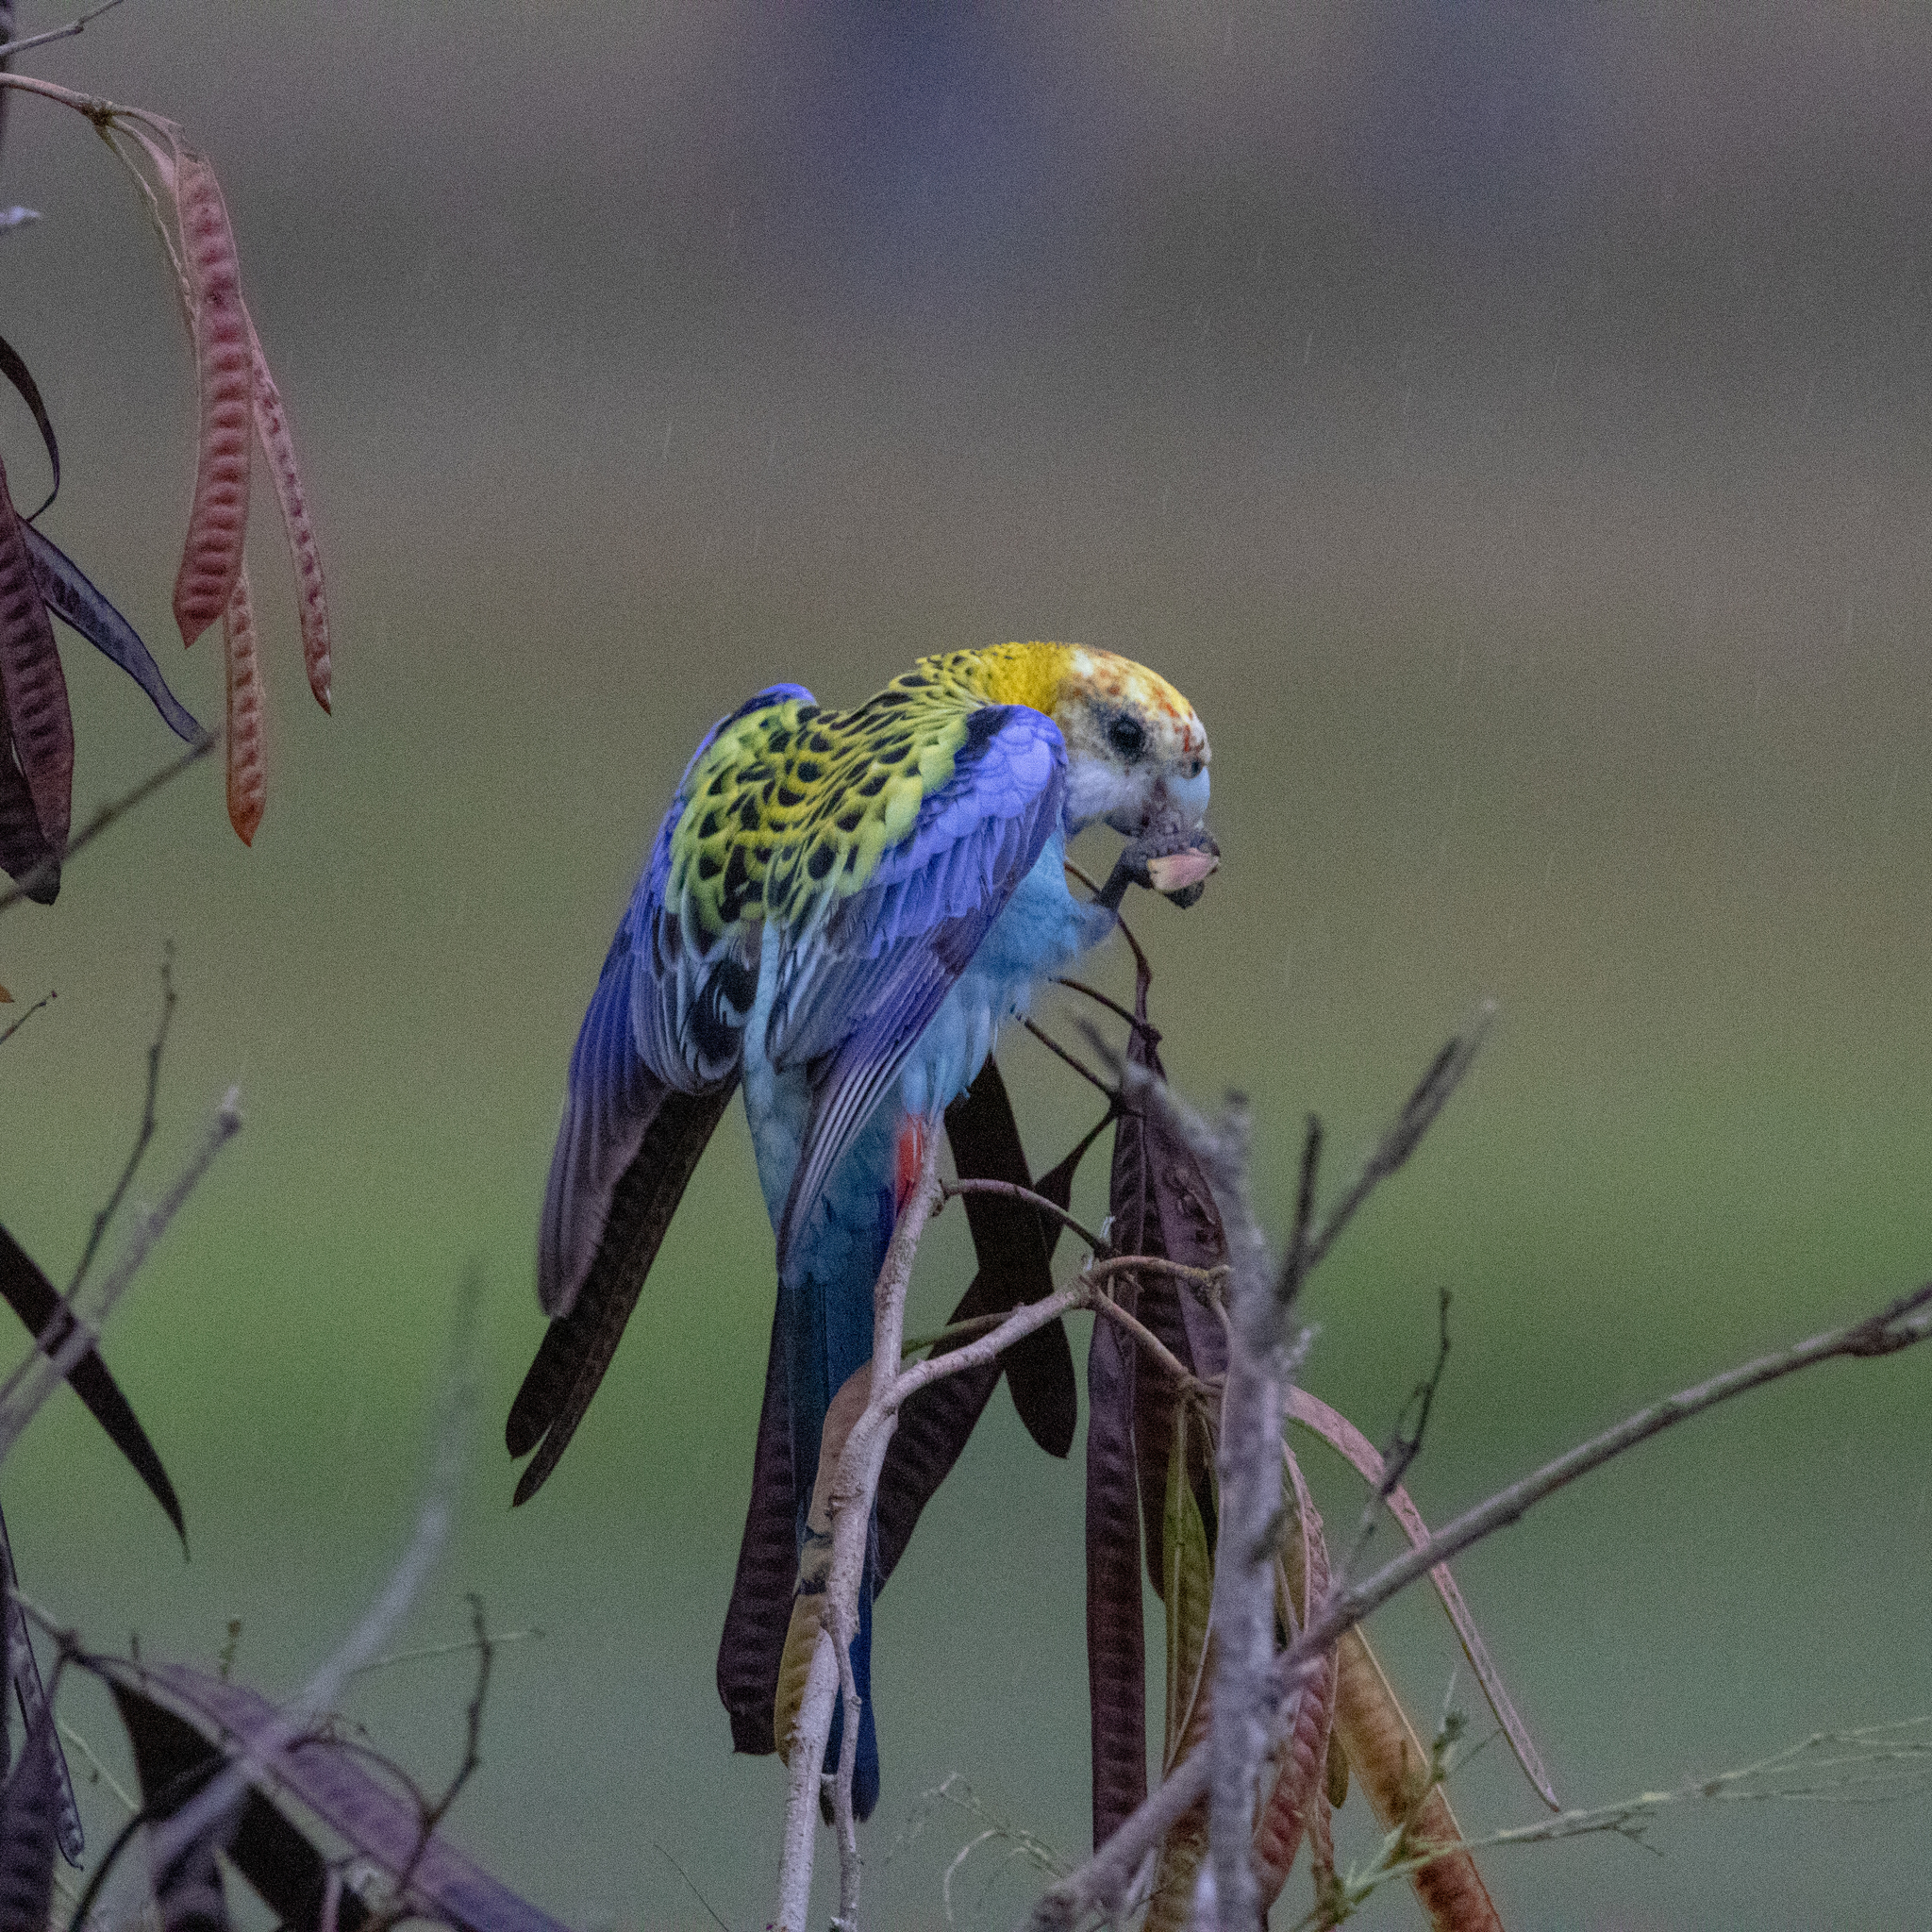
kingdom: Animalia
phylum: Chordata
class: Aves
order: Psittaciformes
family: Psittacidae
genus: Platycercus
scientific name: Platycercus adscitus
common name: Pale-headed rosella
